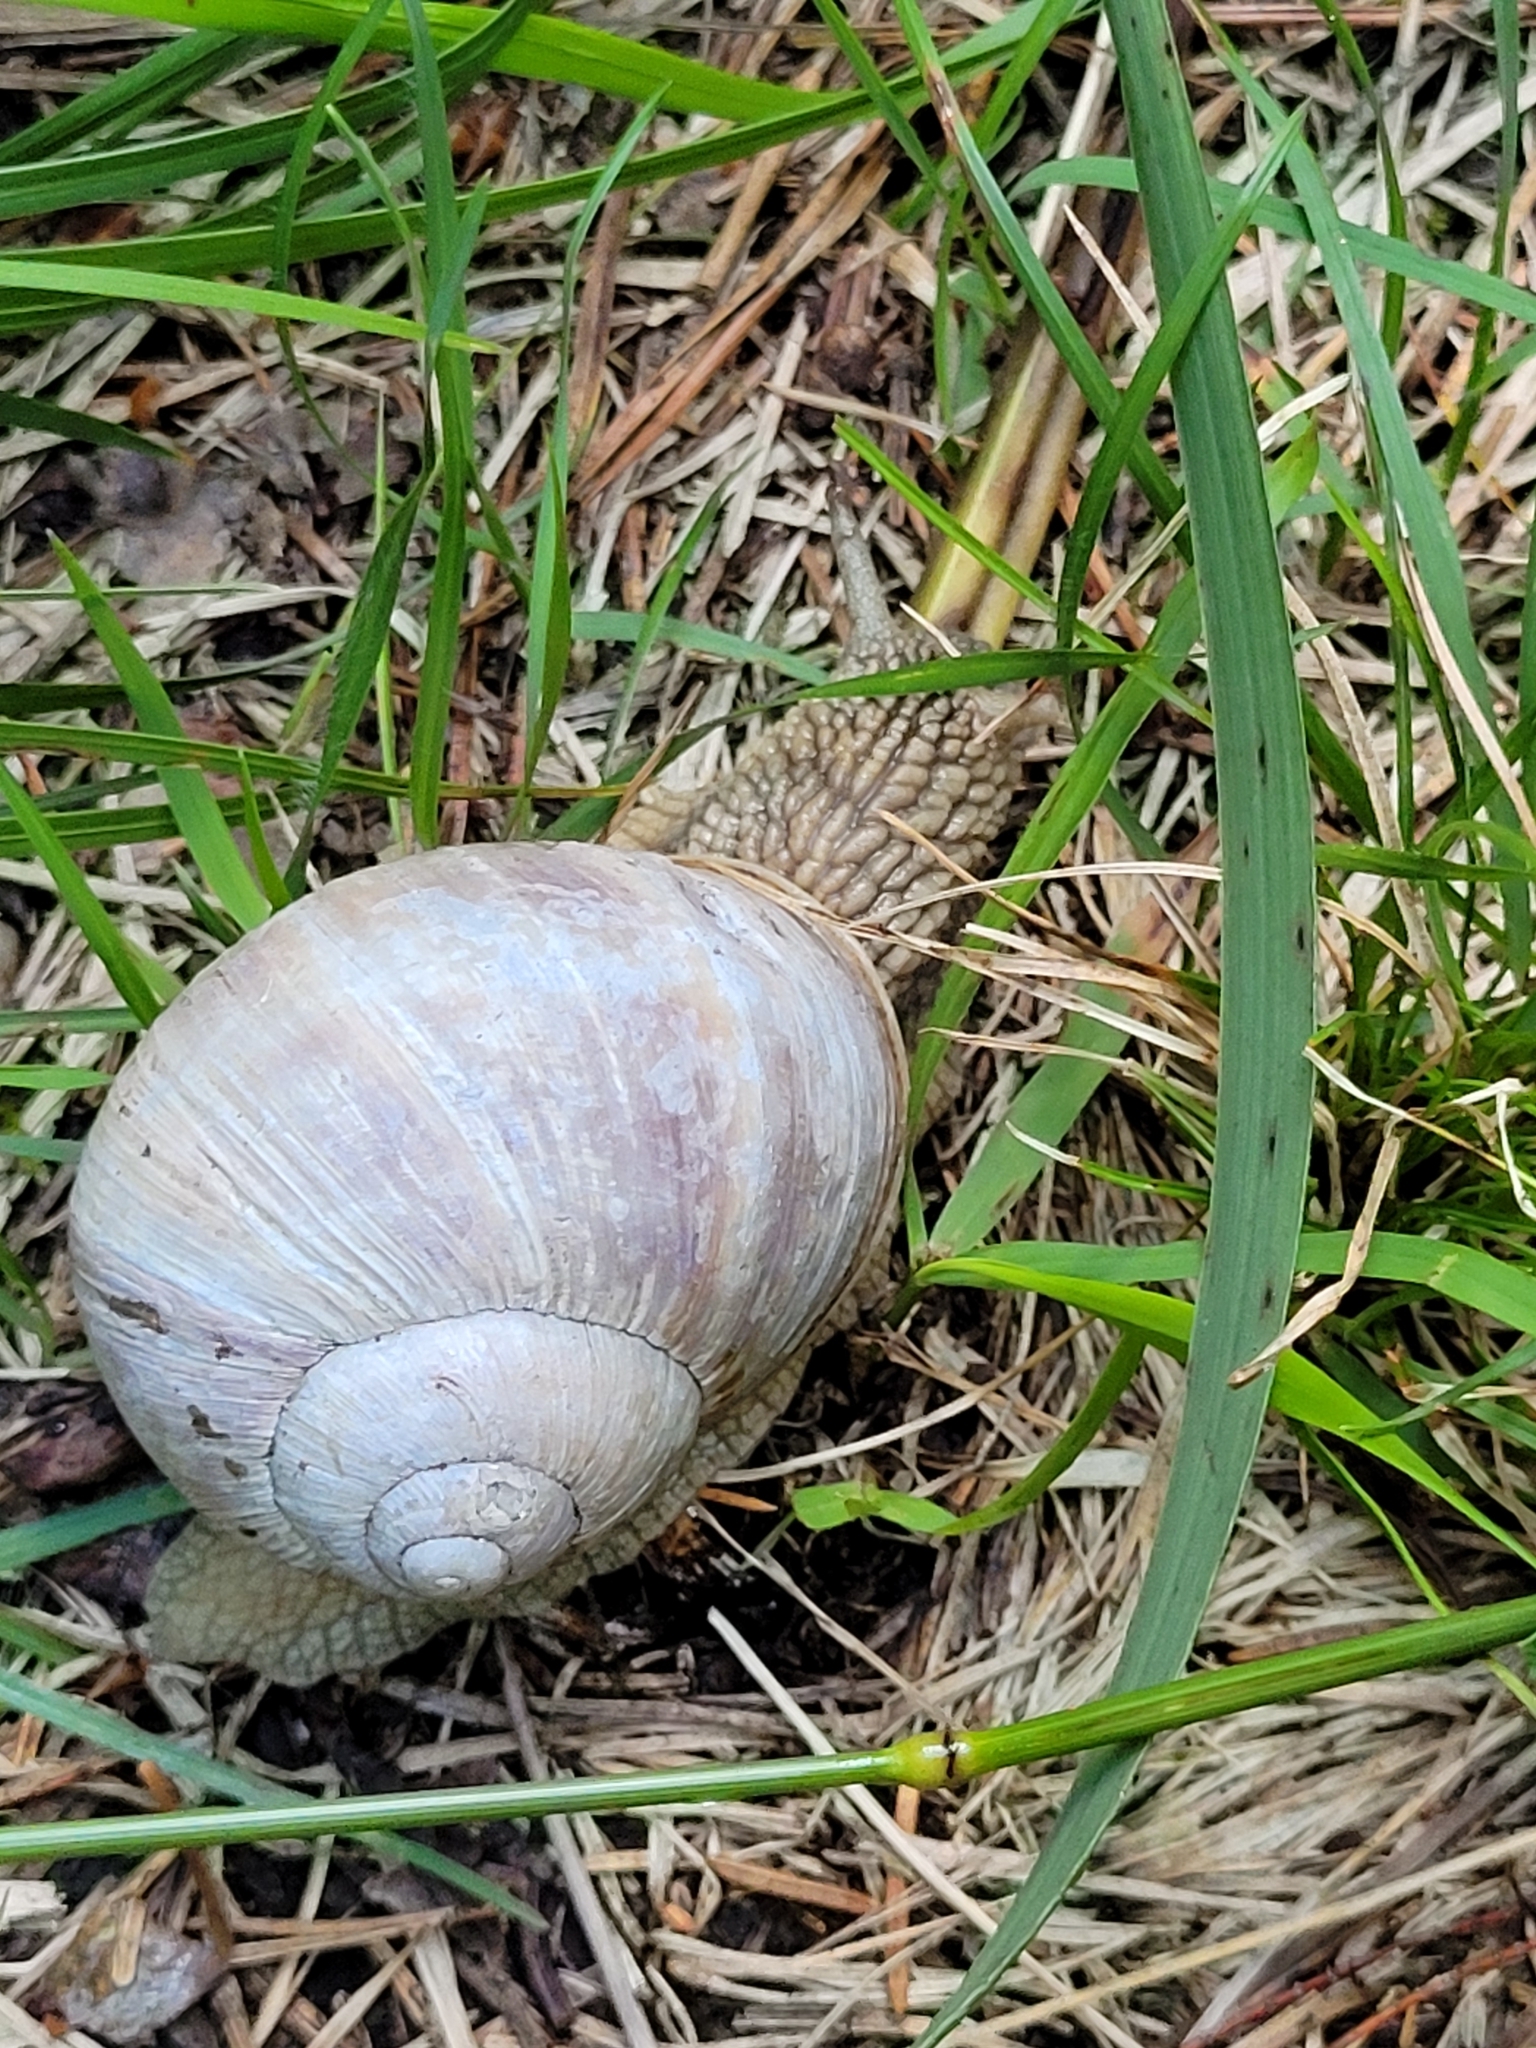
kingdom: Animalia
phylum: Mollusca
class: Gastropoda
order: Stylommatophora
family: Helicidae
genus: Helix
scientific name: Helix pomatia
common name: Roman snail
